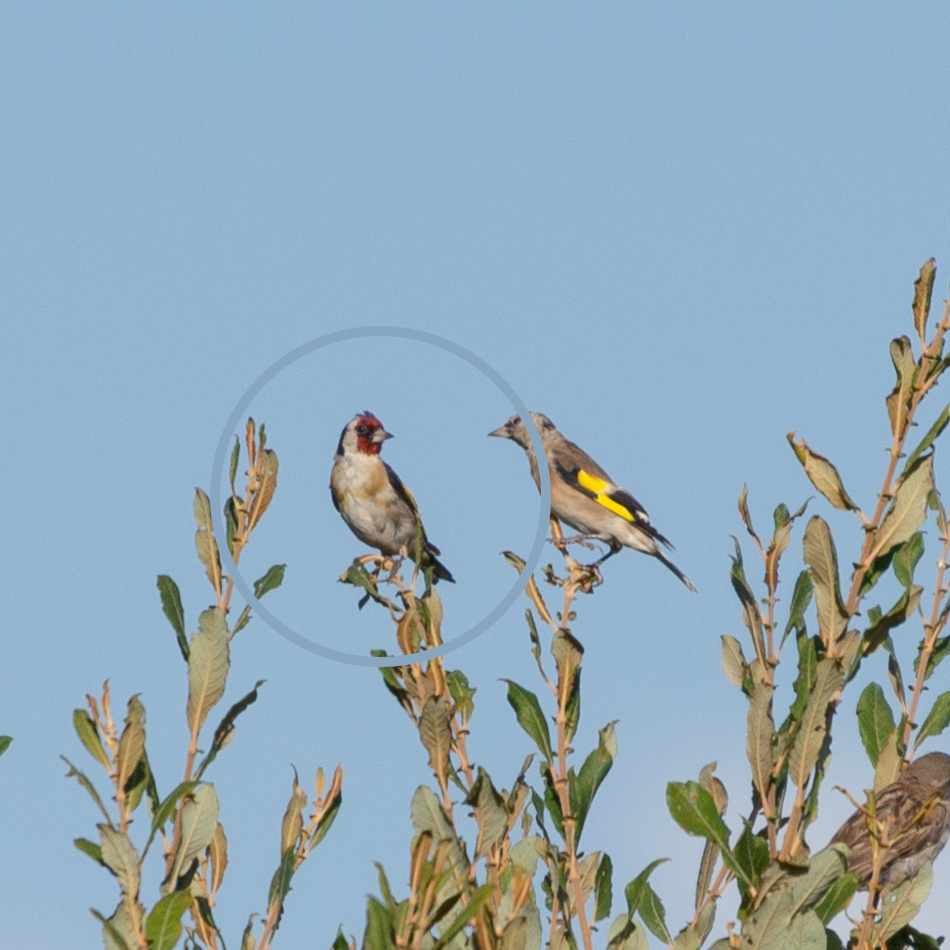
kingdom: Animalia
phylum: Chordata
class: Aves
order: Passeriformes
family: Fringillidae
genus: Carduelis
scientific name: Carduelis carduelis
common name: European goldfinch
